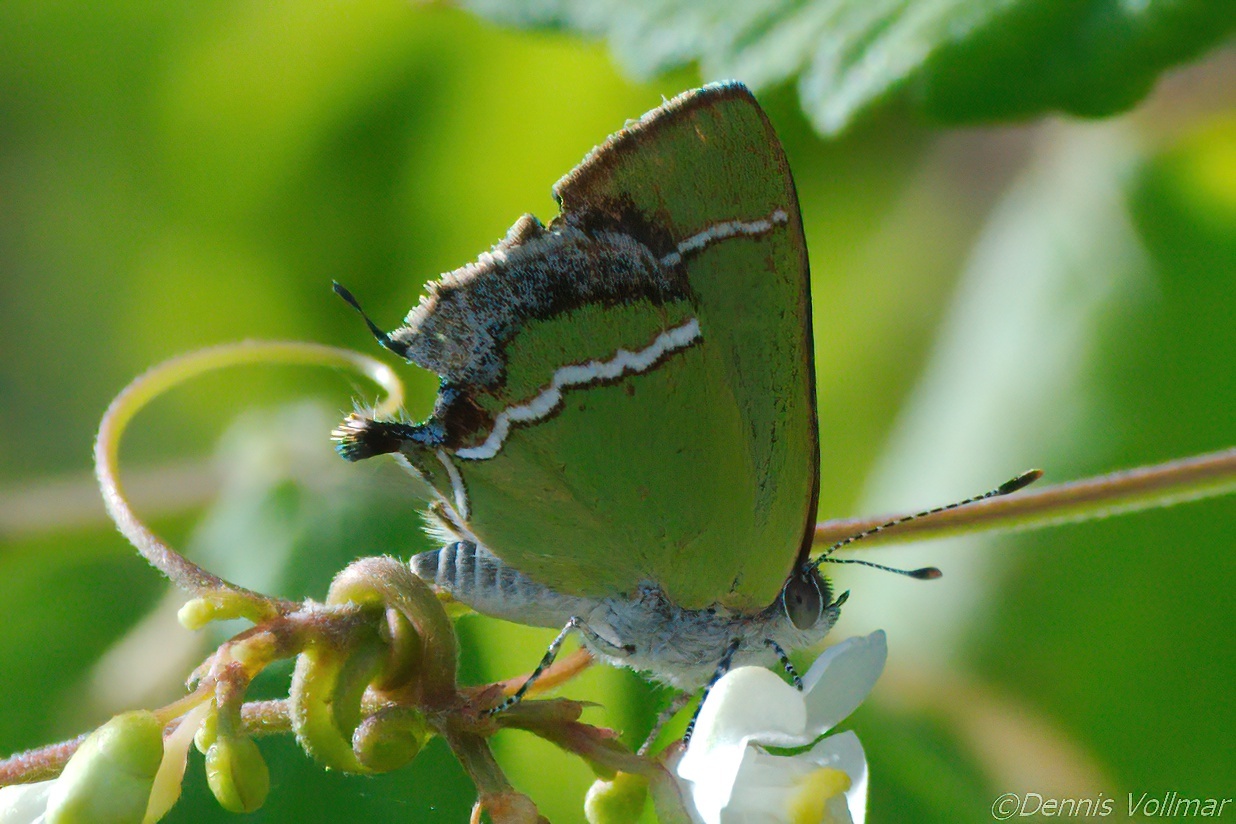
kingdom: Animalia
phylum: Arthropoda
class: Insecta
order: Lepidoptera
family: Lycaenidae
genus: Chlorostrymon
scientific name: Chlorostrymon simaethis
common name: Silver-banded hairstreak
